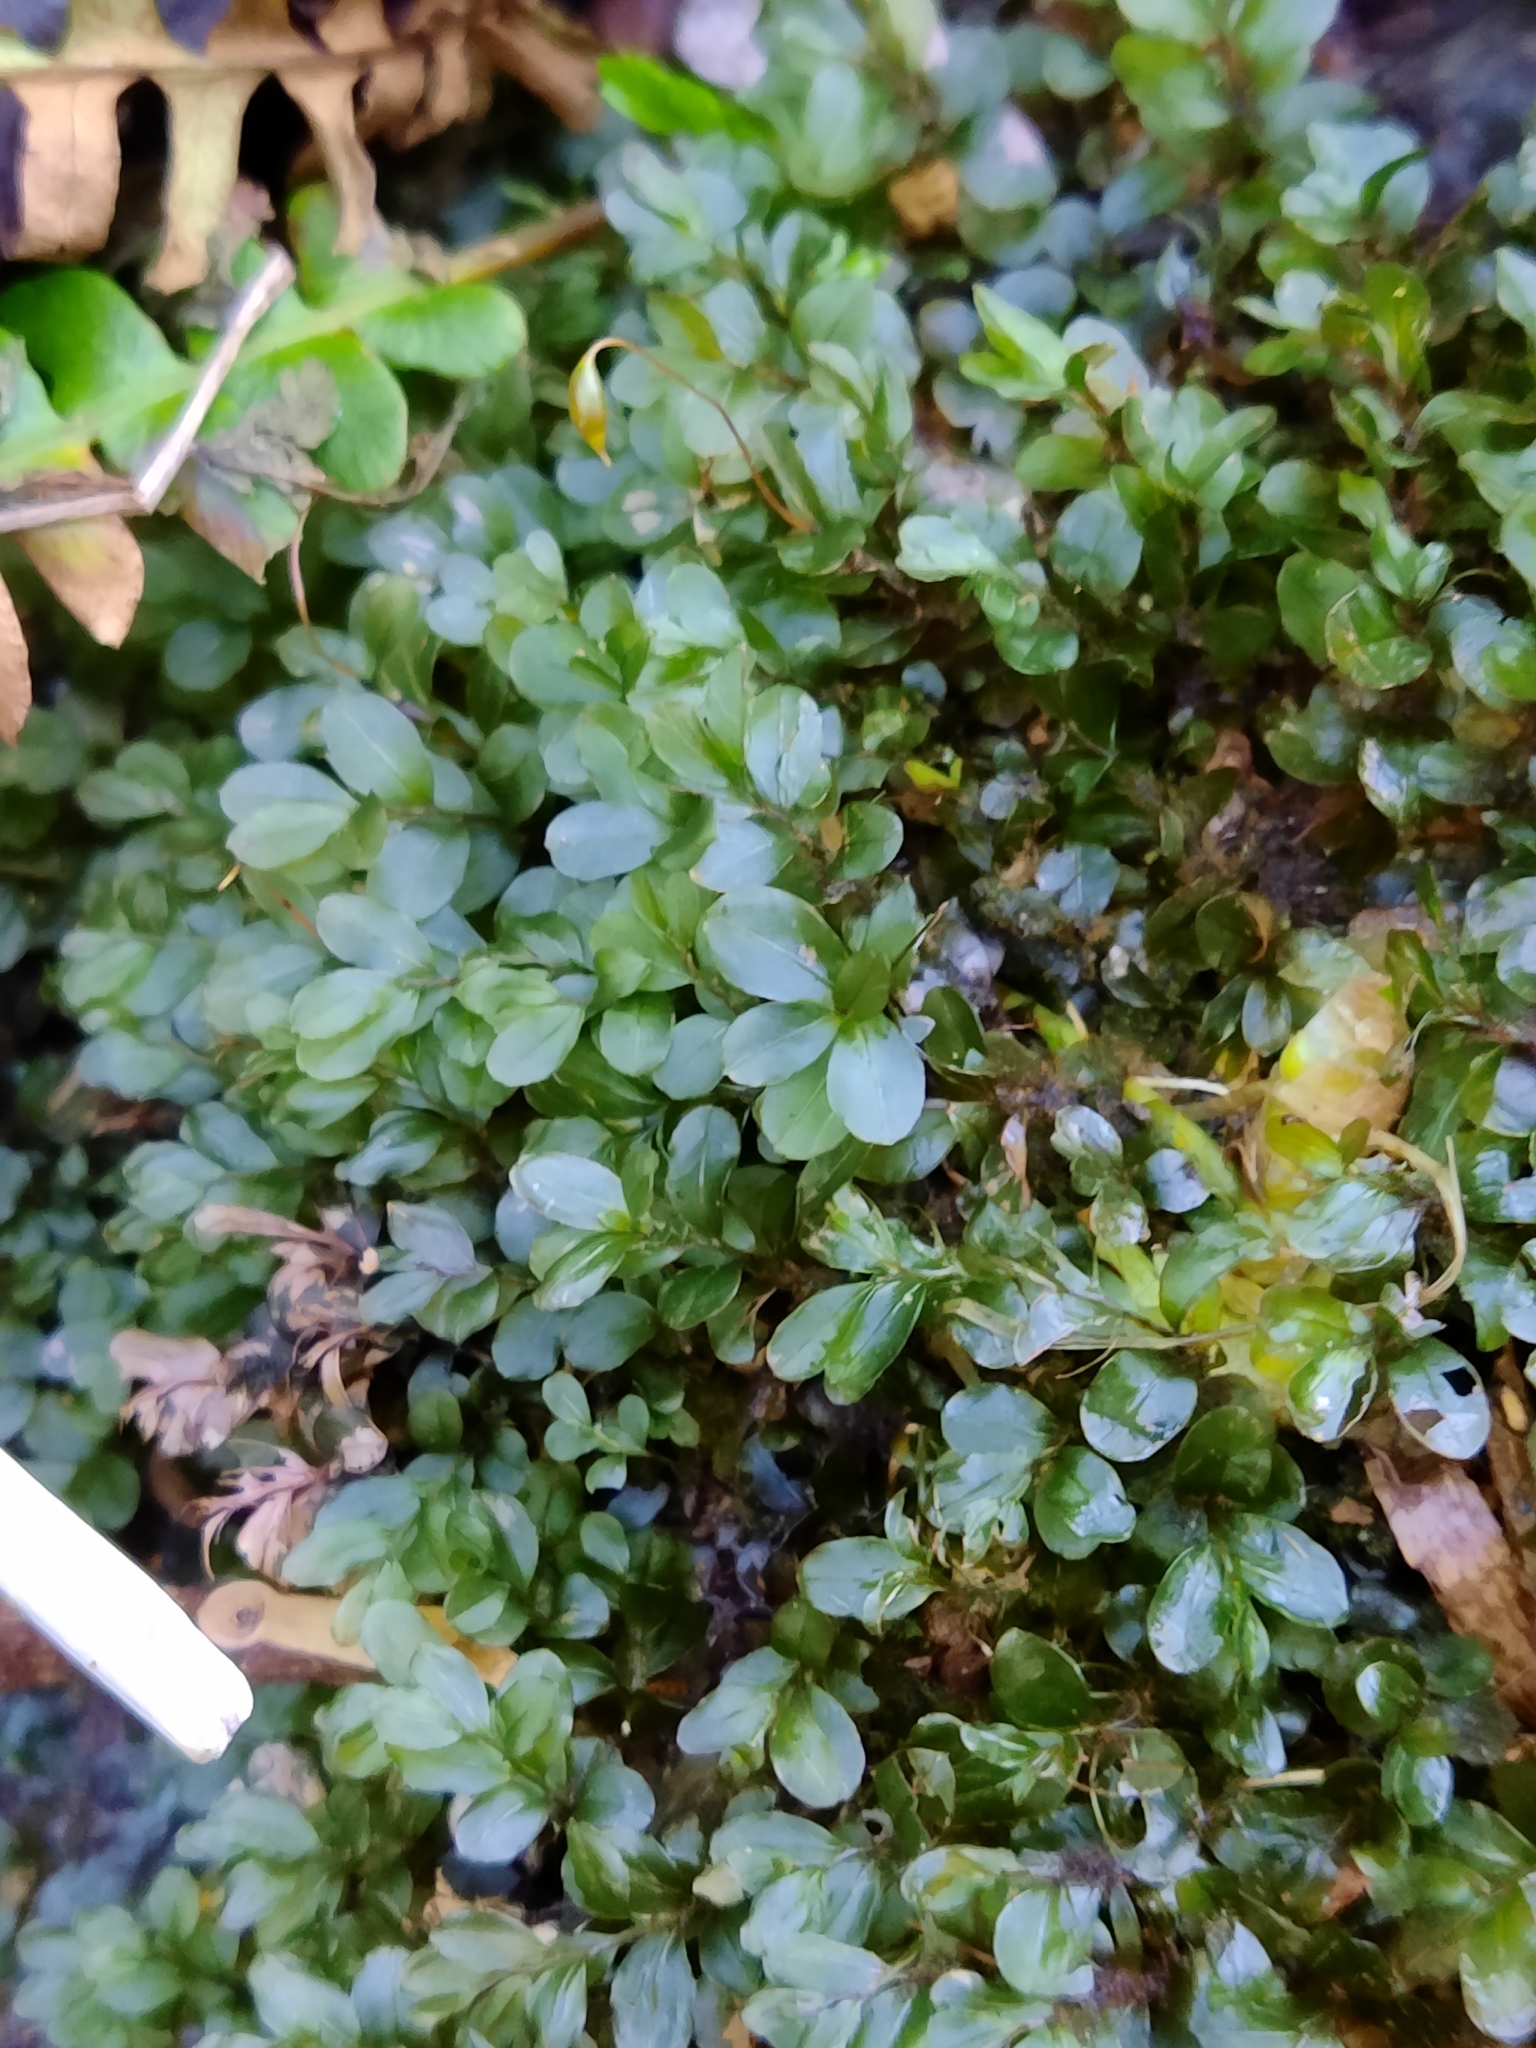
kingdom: Plantae
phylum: Bryophyta
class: Bryopsida
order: Bryales
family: Mniaceae
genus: Rhizomnium
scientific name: Rhizomnium punctatum
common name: Dotted leafy moss
